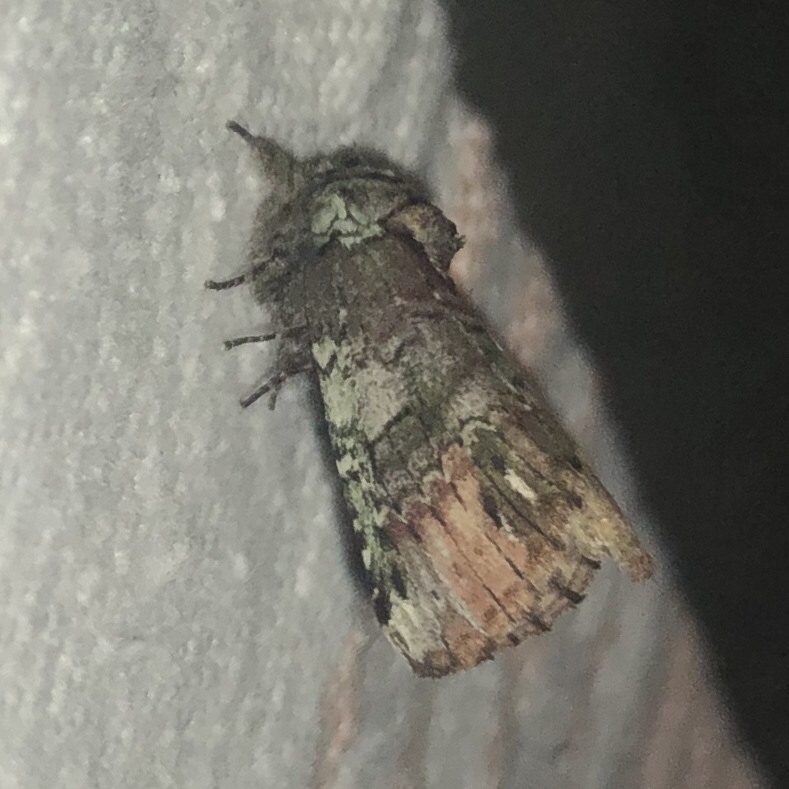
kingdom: Animalia
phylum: Arthropoda
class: Insecta
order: Lepidoptera
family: Notodontidae
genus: Schizura
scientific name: Schizura
